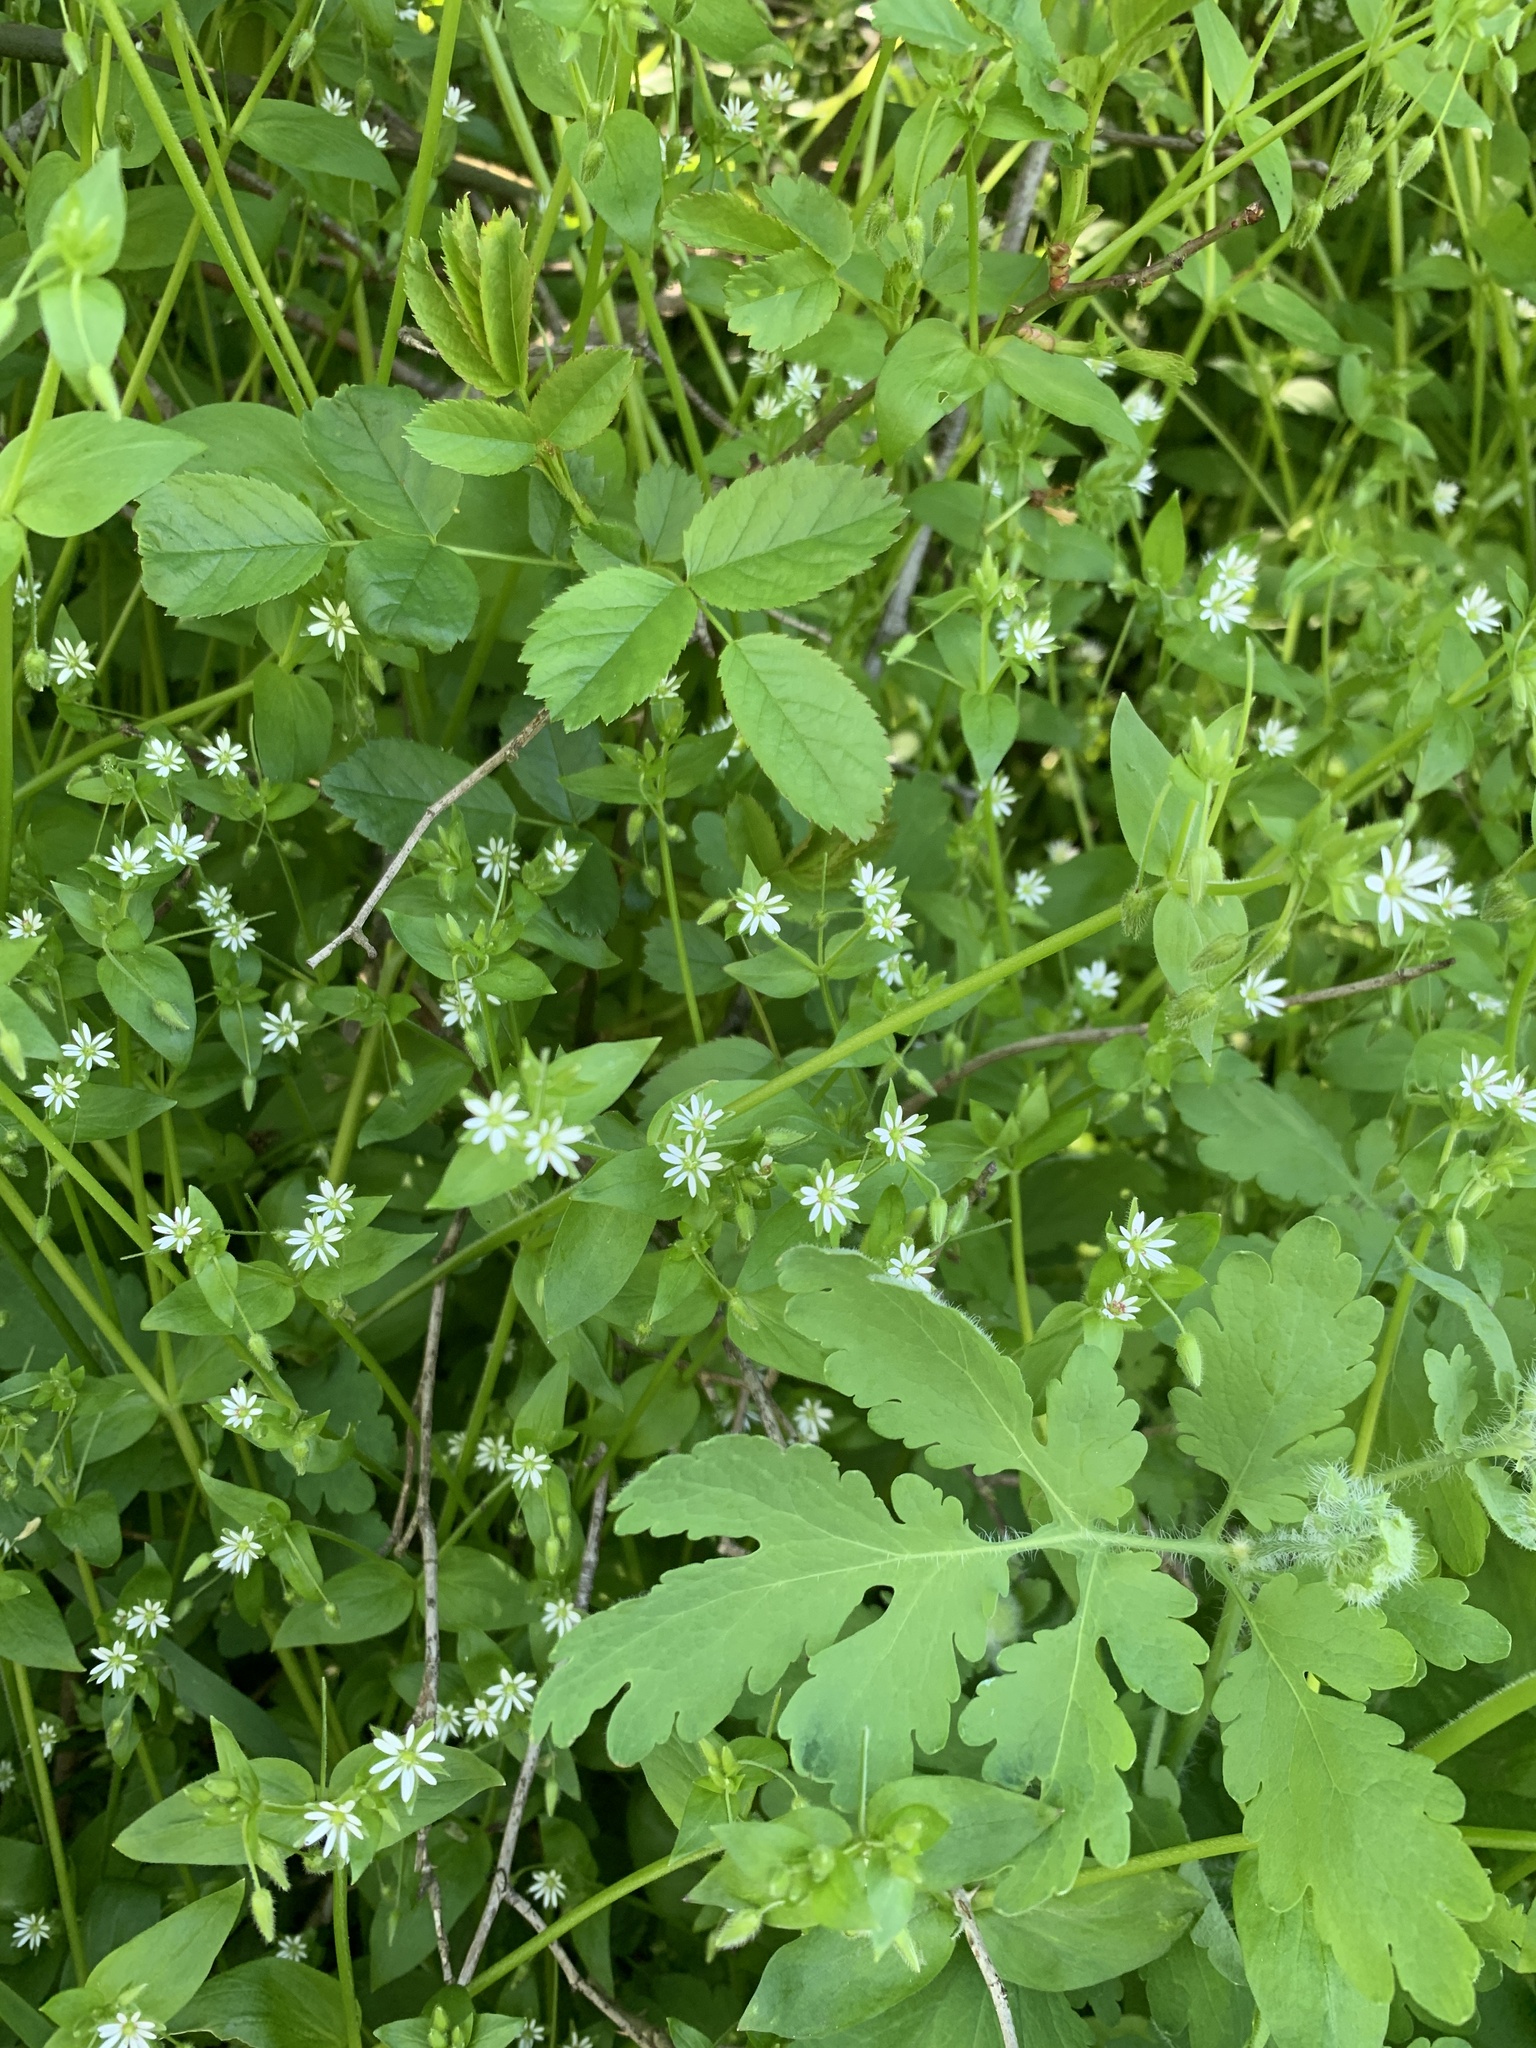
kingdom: Plantae
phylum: Tracheophyta
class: Magnoliopsida
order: Caryophyllales
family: Caryophyllaceae
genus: Stellaria
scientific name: Stellaria ruderalis
